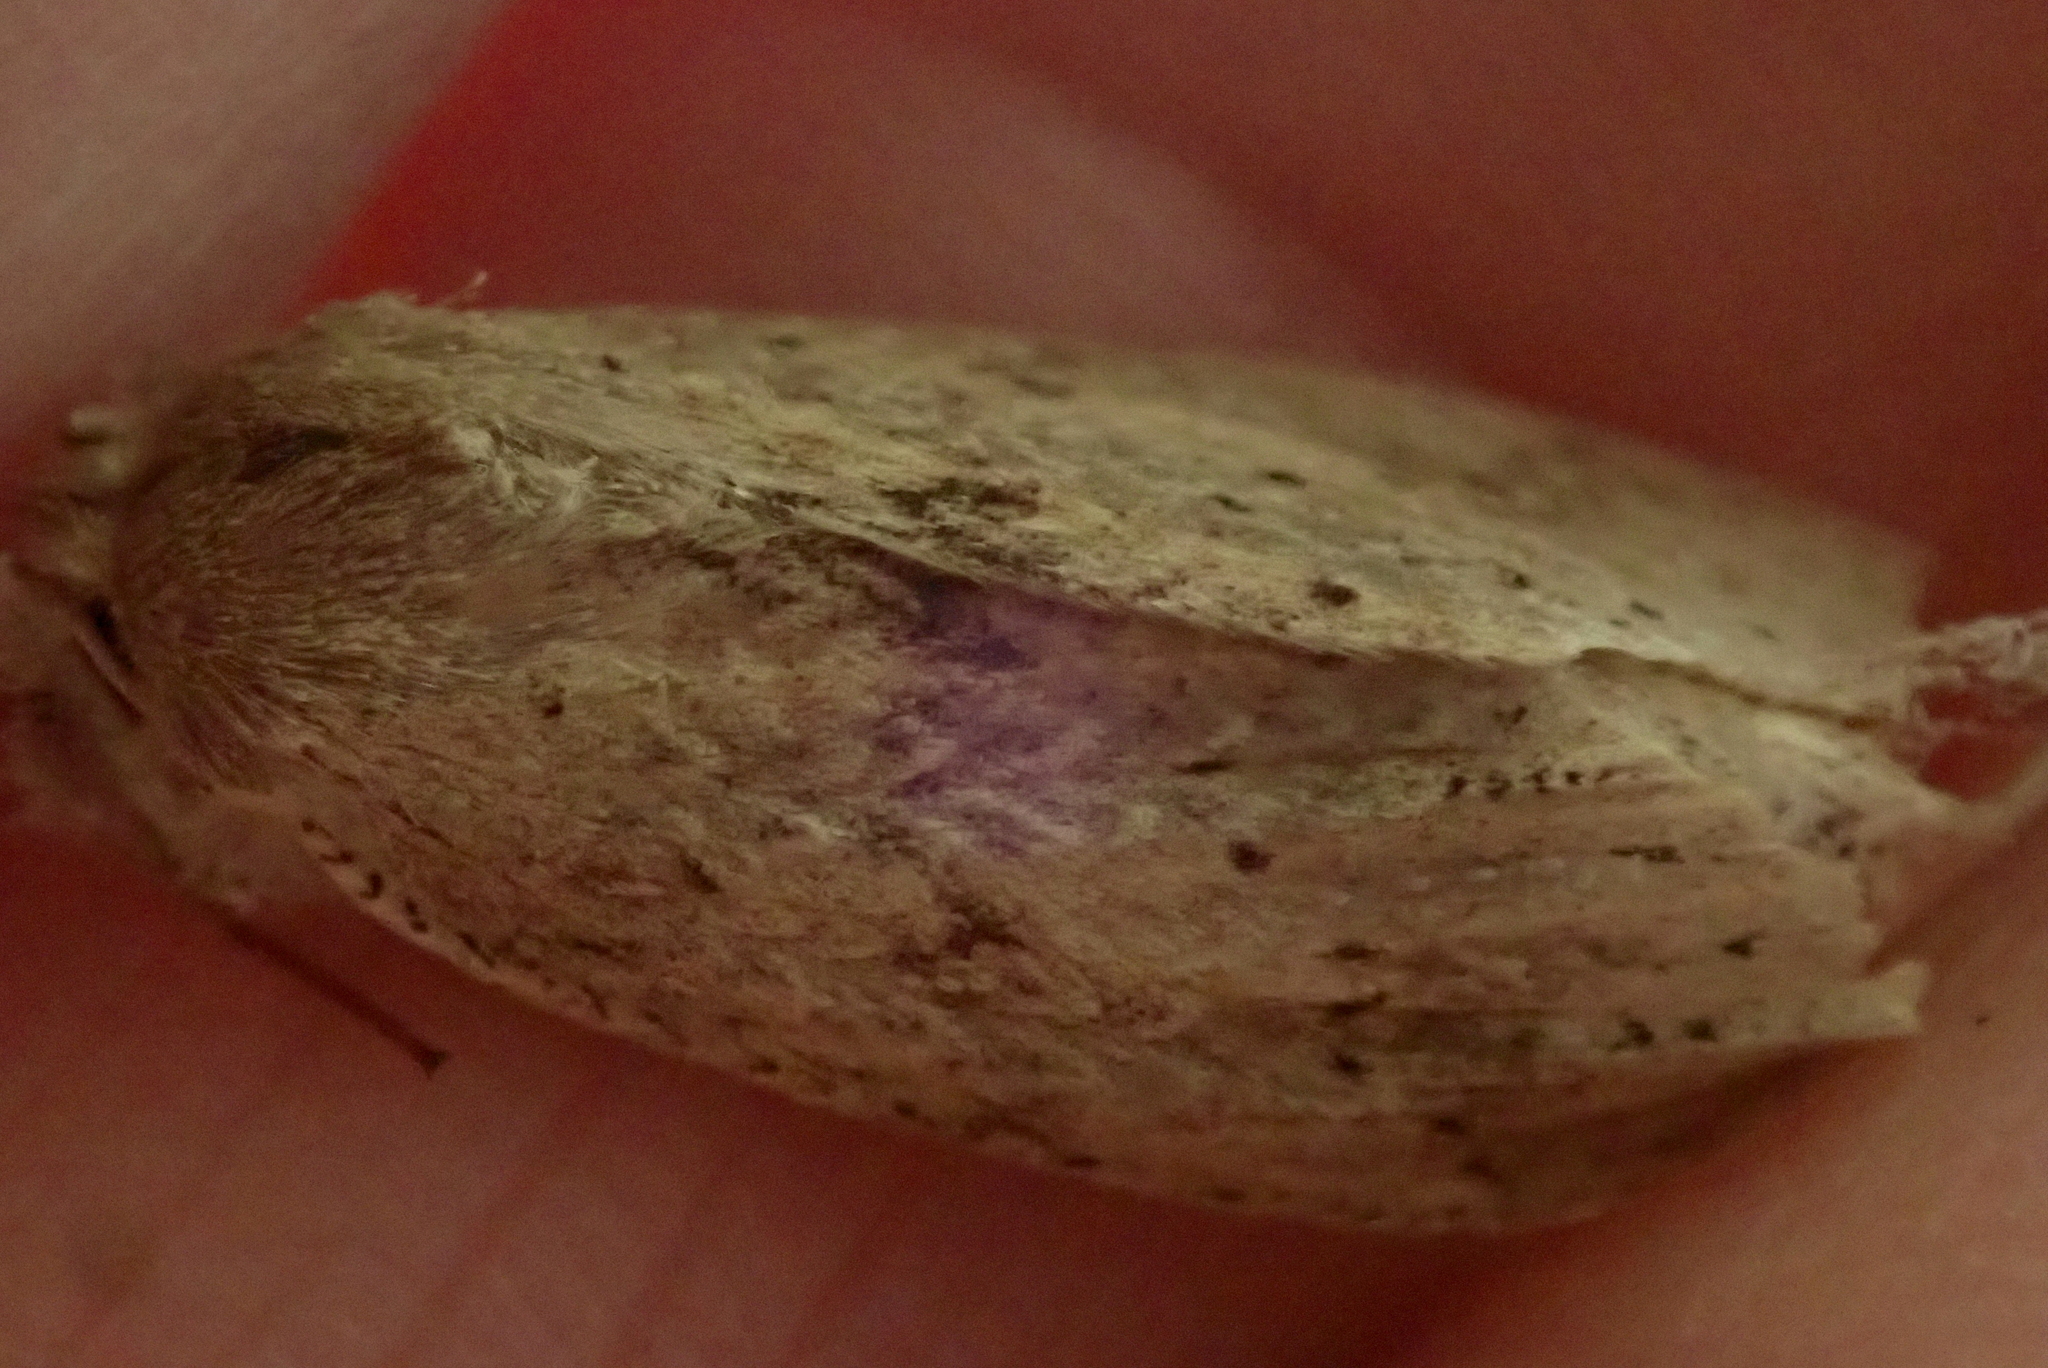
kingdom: Animalia
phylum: Arthropoda
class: Insecta
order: Lepidoptera
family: Geometridae
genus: Declana
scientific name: Declana leptomera
